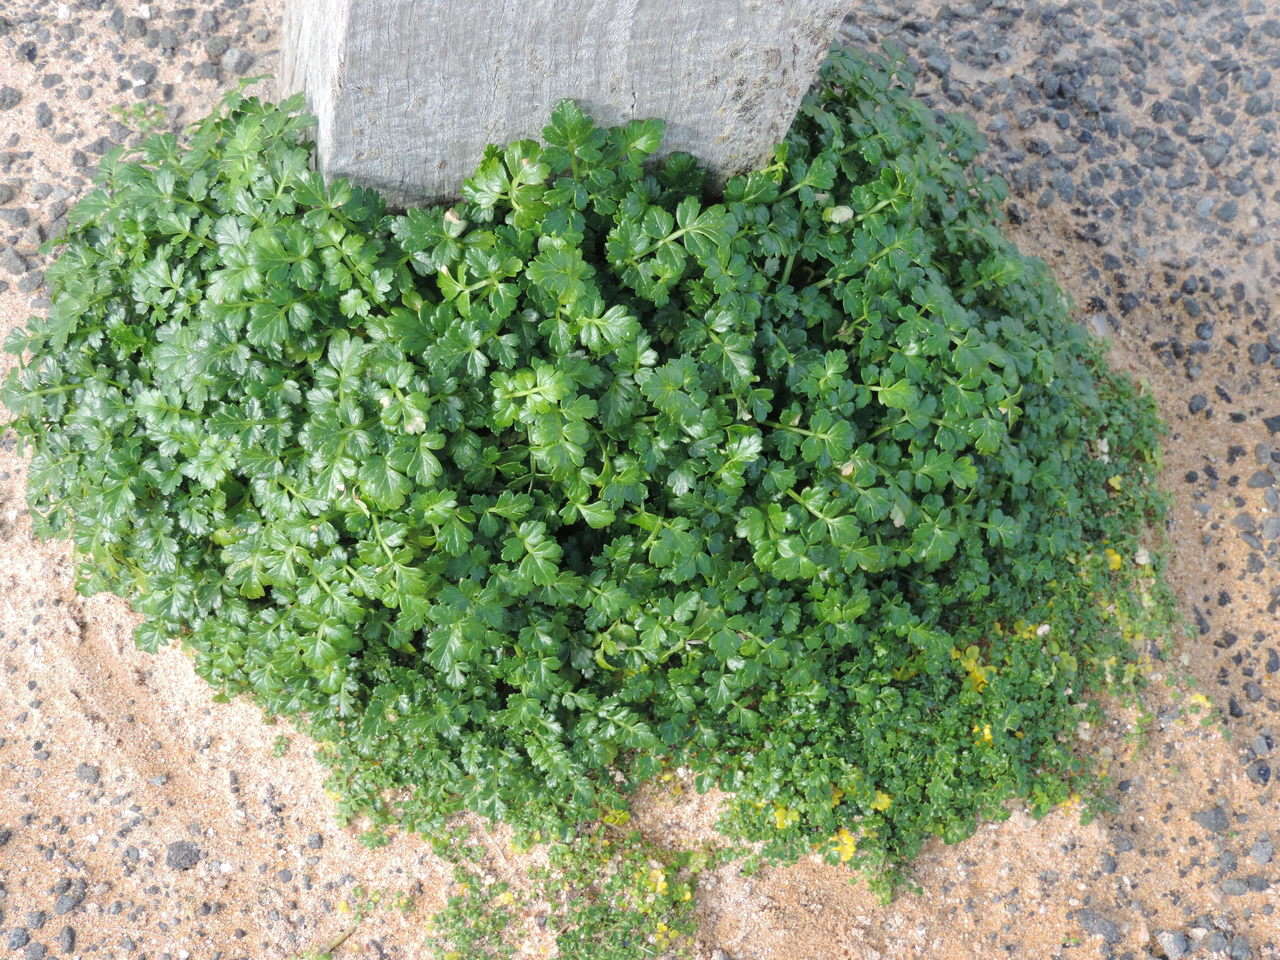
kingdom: Plantae
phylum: Tracheophyta
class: Magnoliopsida
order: Apiales
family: Apiaceae
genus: Apium
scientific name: Apium prostratum
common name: Prostrate marshwort
